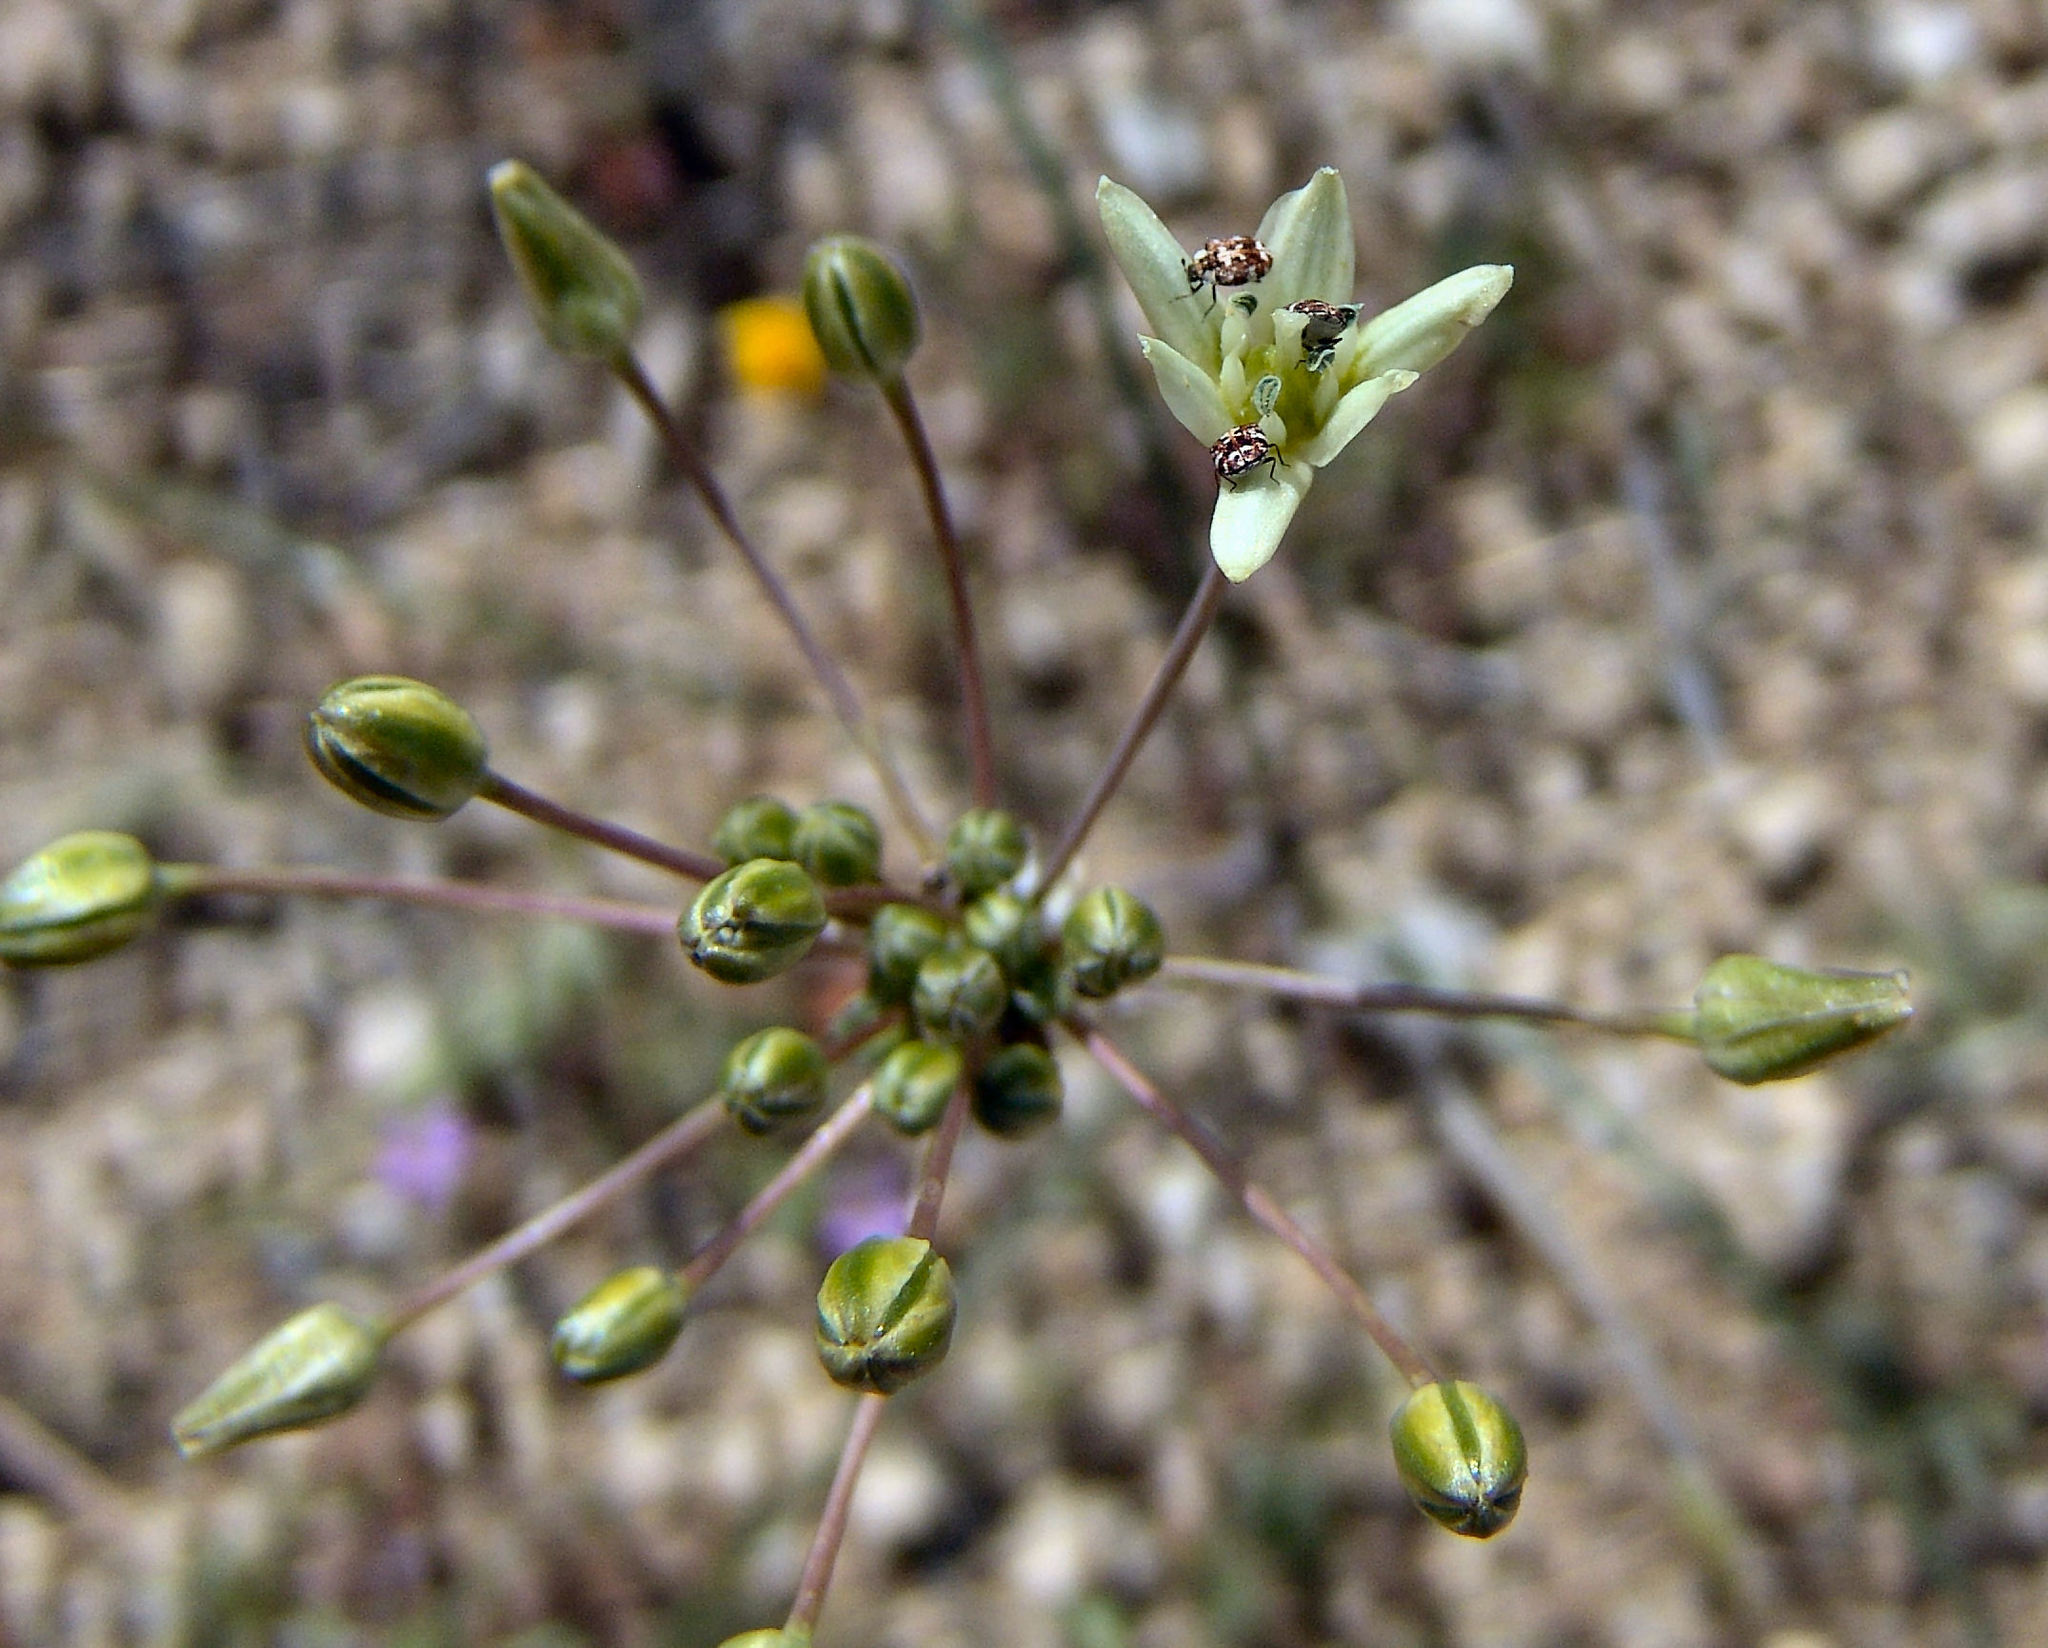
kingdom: Plantae
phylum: Tracheophyta
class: Liliopsida
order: Asparagales
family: Asparagaceae
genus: Muilla
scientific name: Muilla maritima
